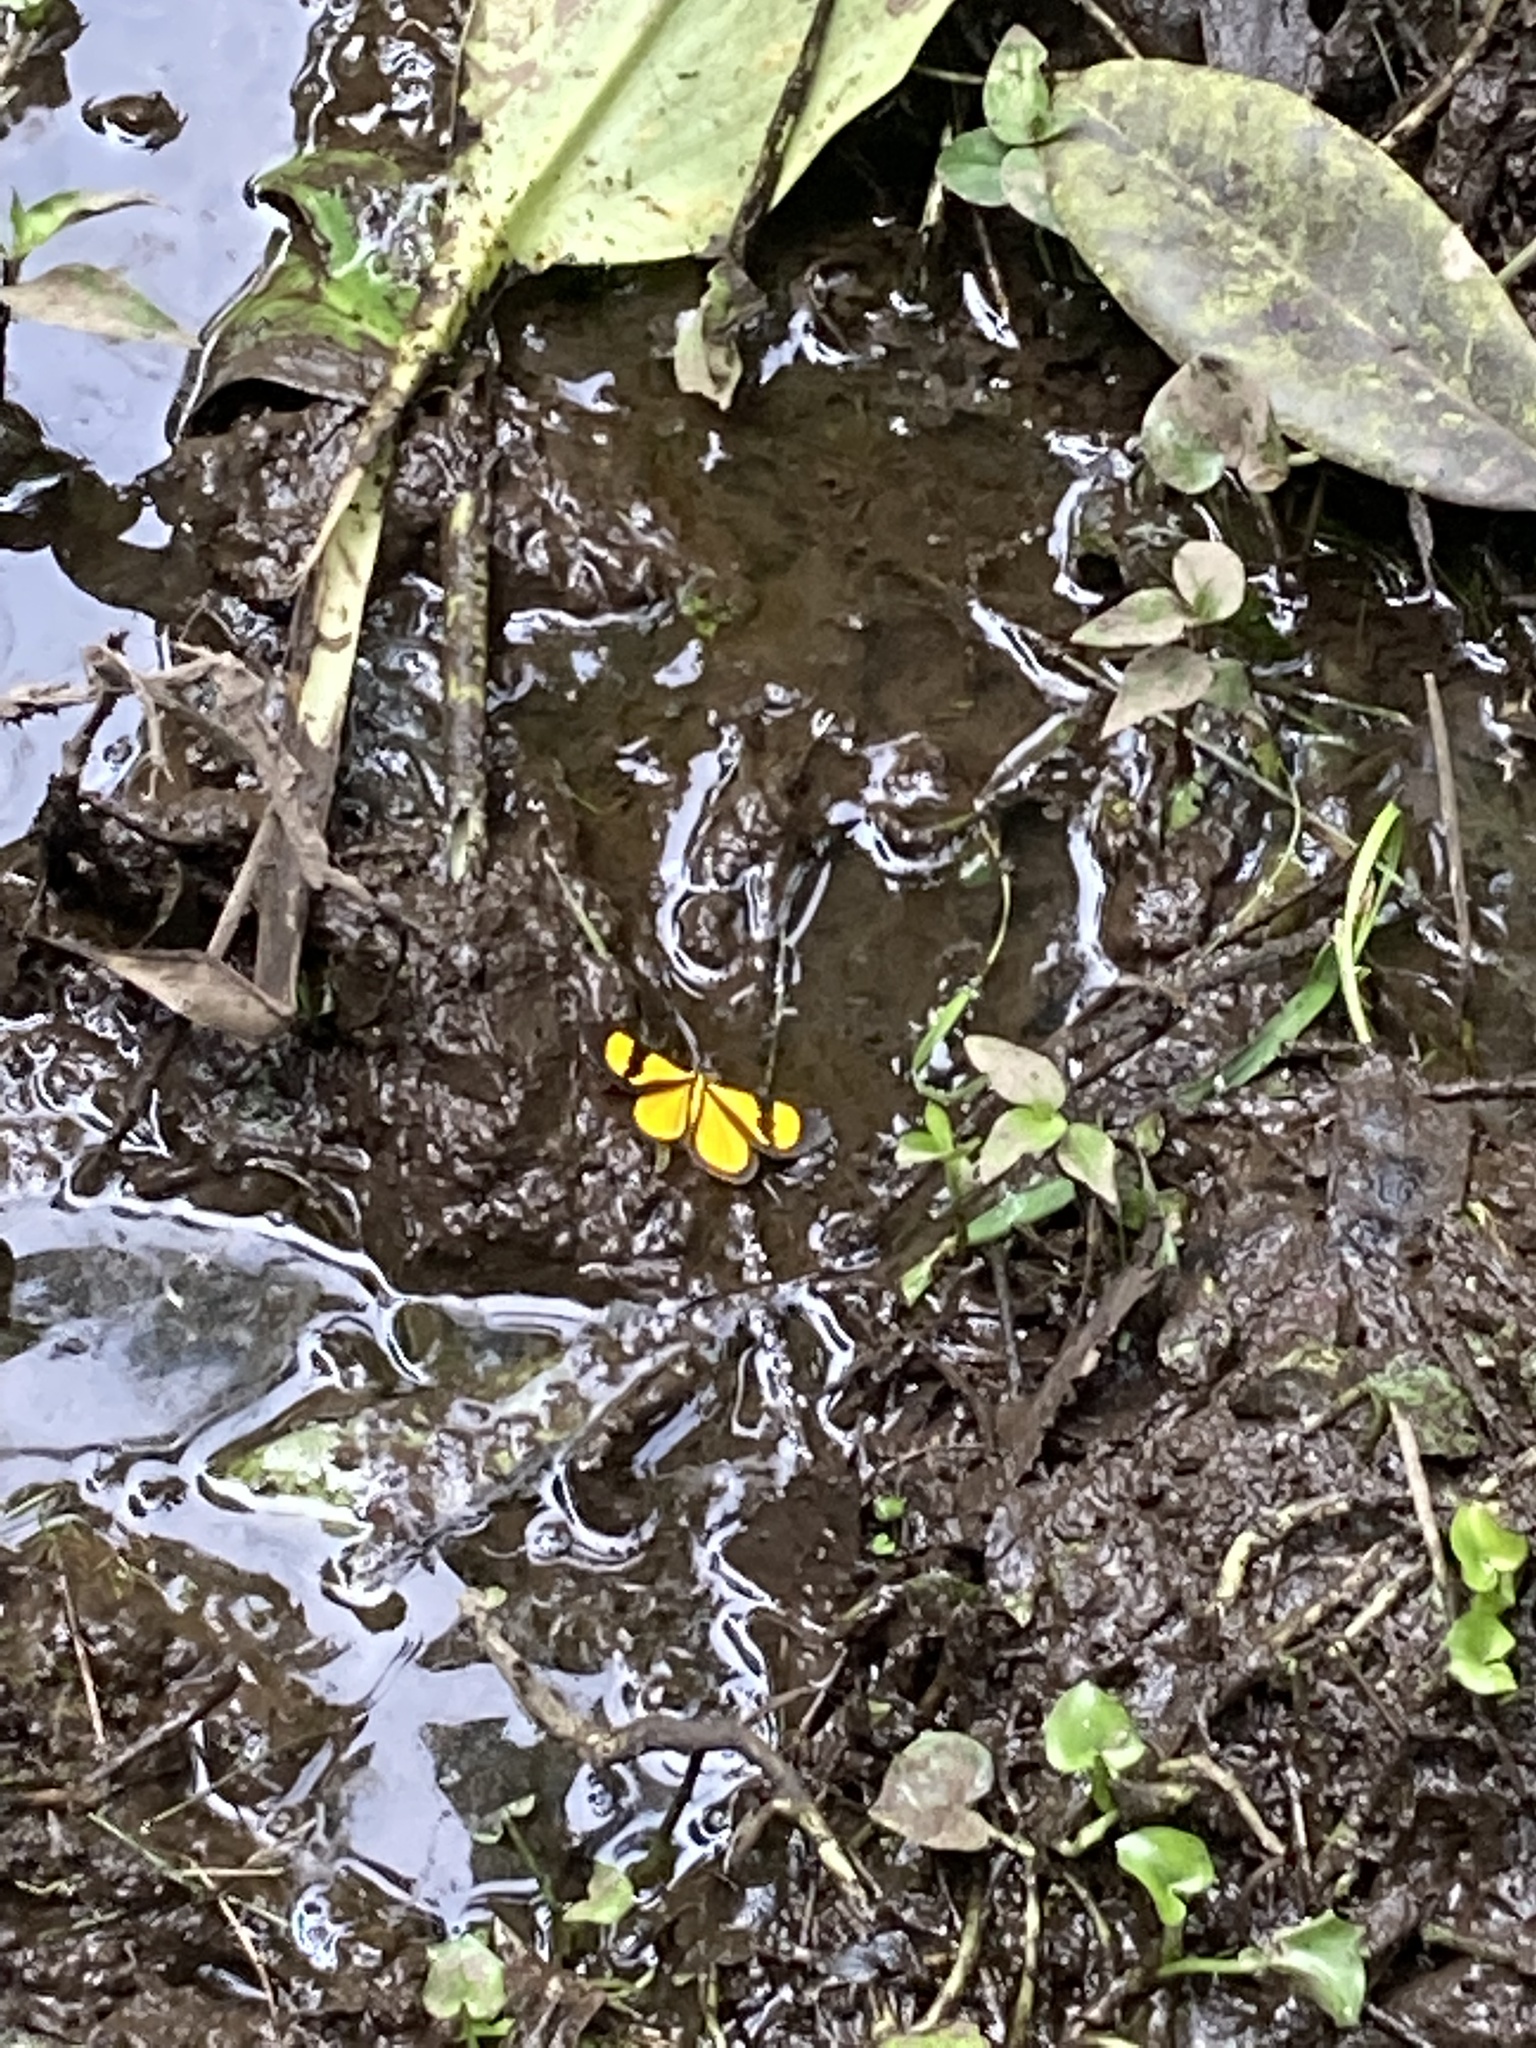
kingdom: Animalia
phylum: Arthropoda
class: Insecta
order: Lepidoptera
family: Geometridae
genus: Smicropus
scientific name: Smicropus laeta
